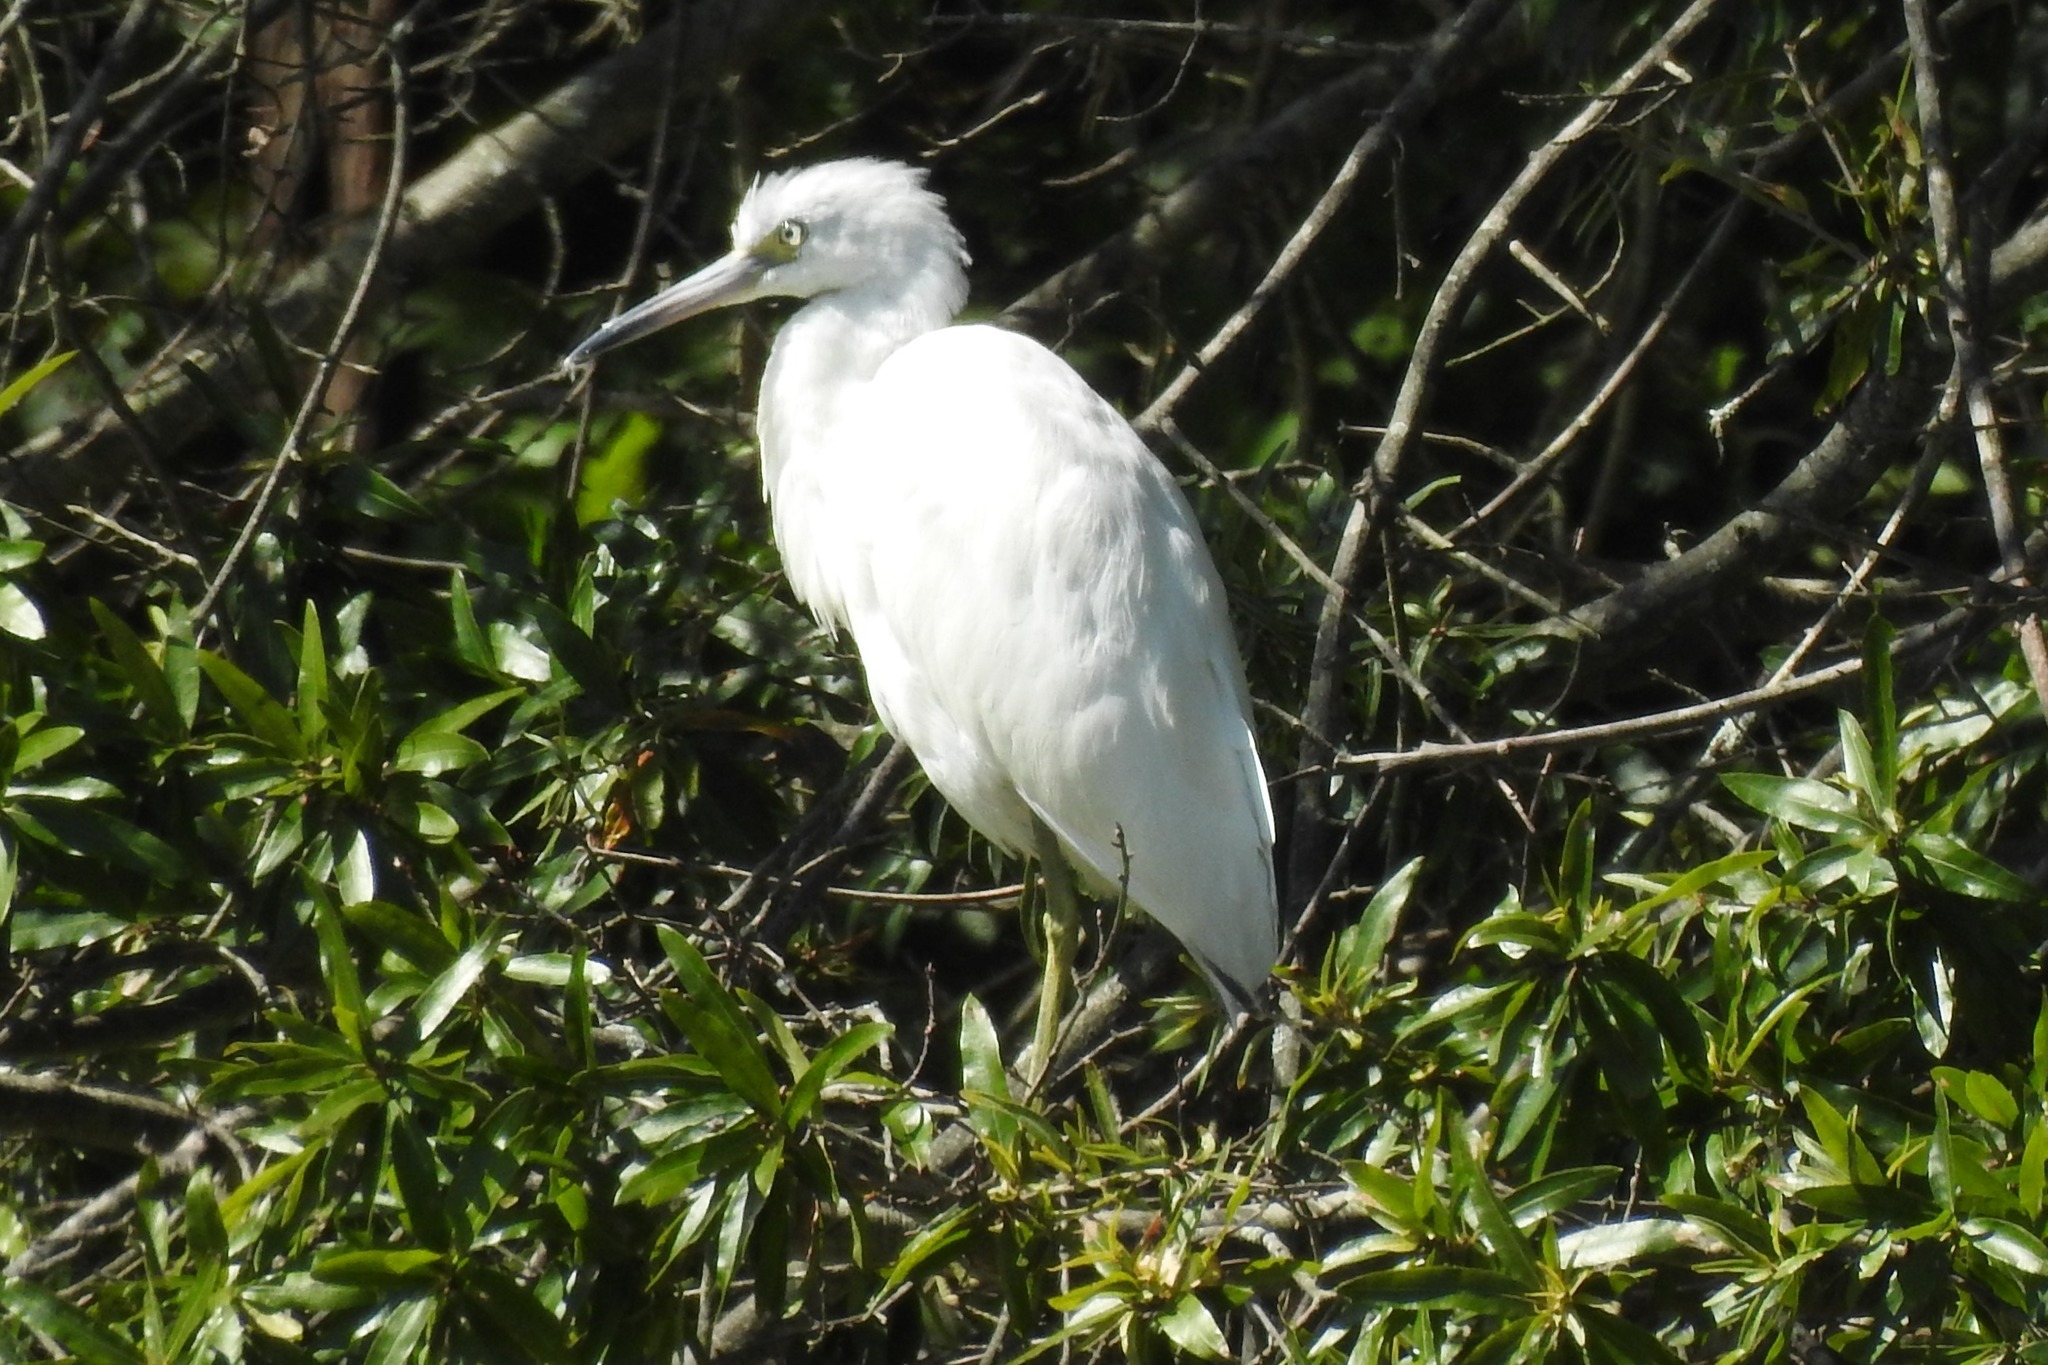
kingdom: Animalia
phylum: Chordata
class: Aves
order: Pelecaniformes
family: Ardeidae
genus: Egretta
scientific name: Egretta caerulea
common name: Little blue heron
